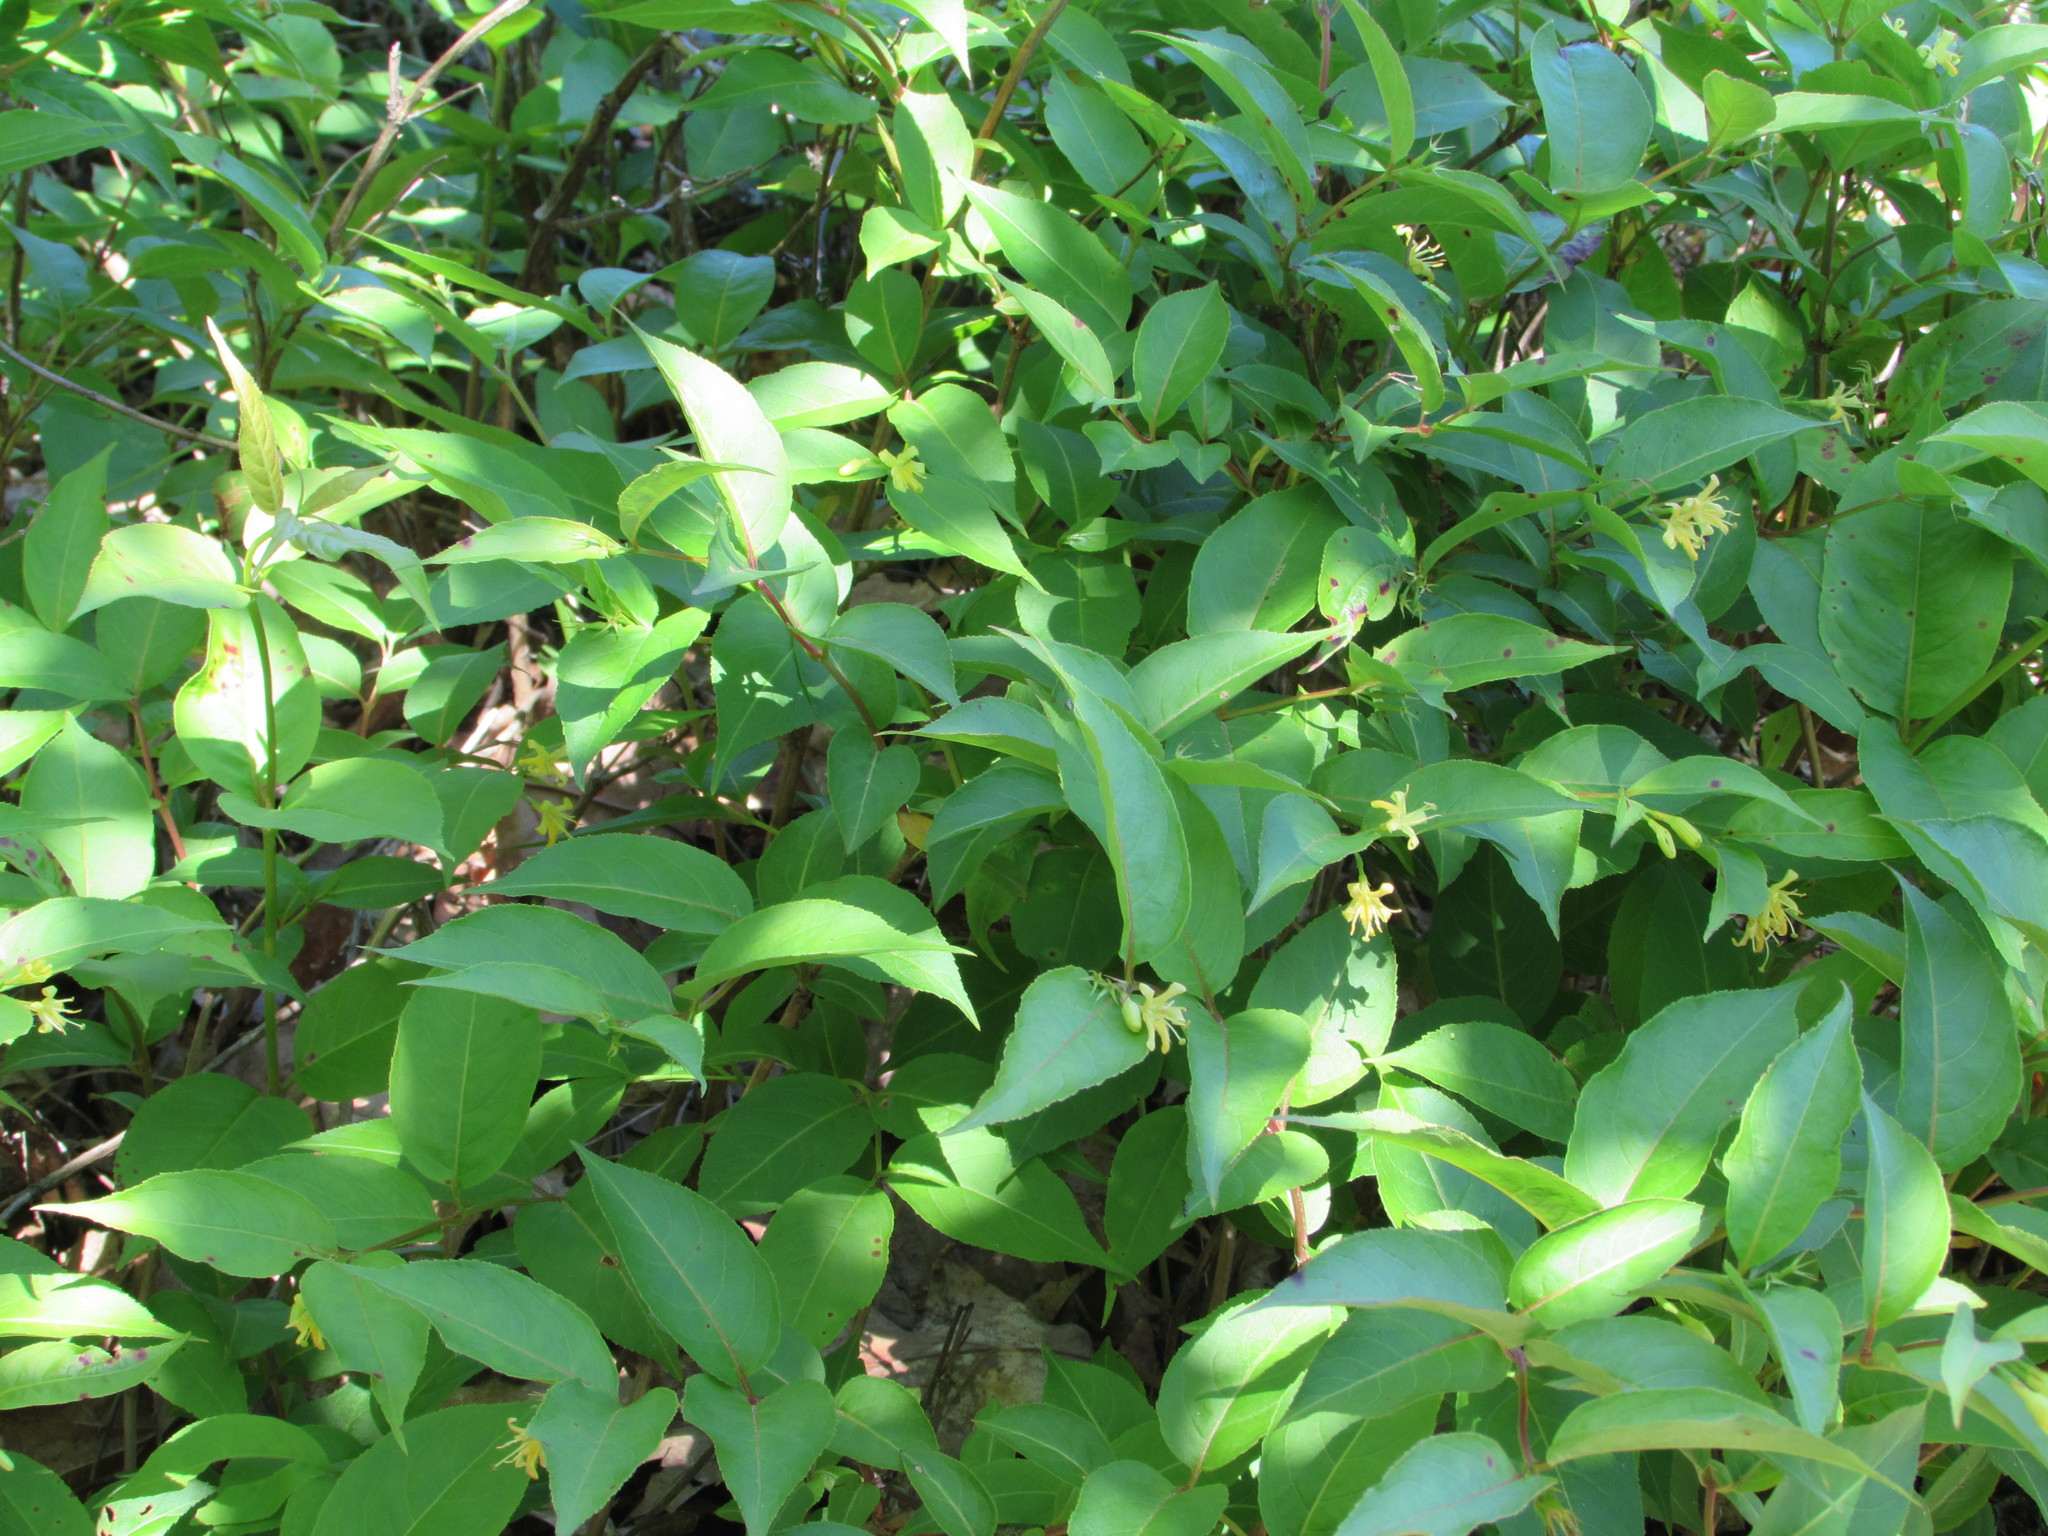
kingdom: Plantae
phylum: Tracheophyta
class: Magnoliopsida
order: Dipsacales
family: Caprifoliaceae
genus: Diervilla
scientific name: Diervilla lonicera
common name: Bush-honeysuckle
